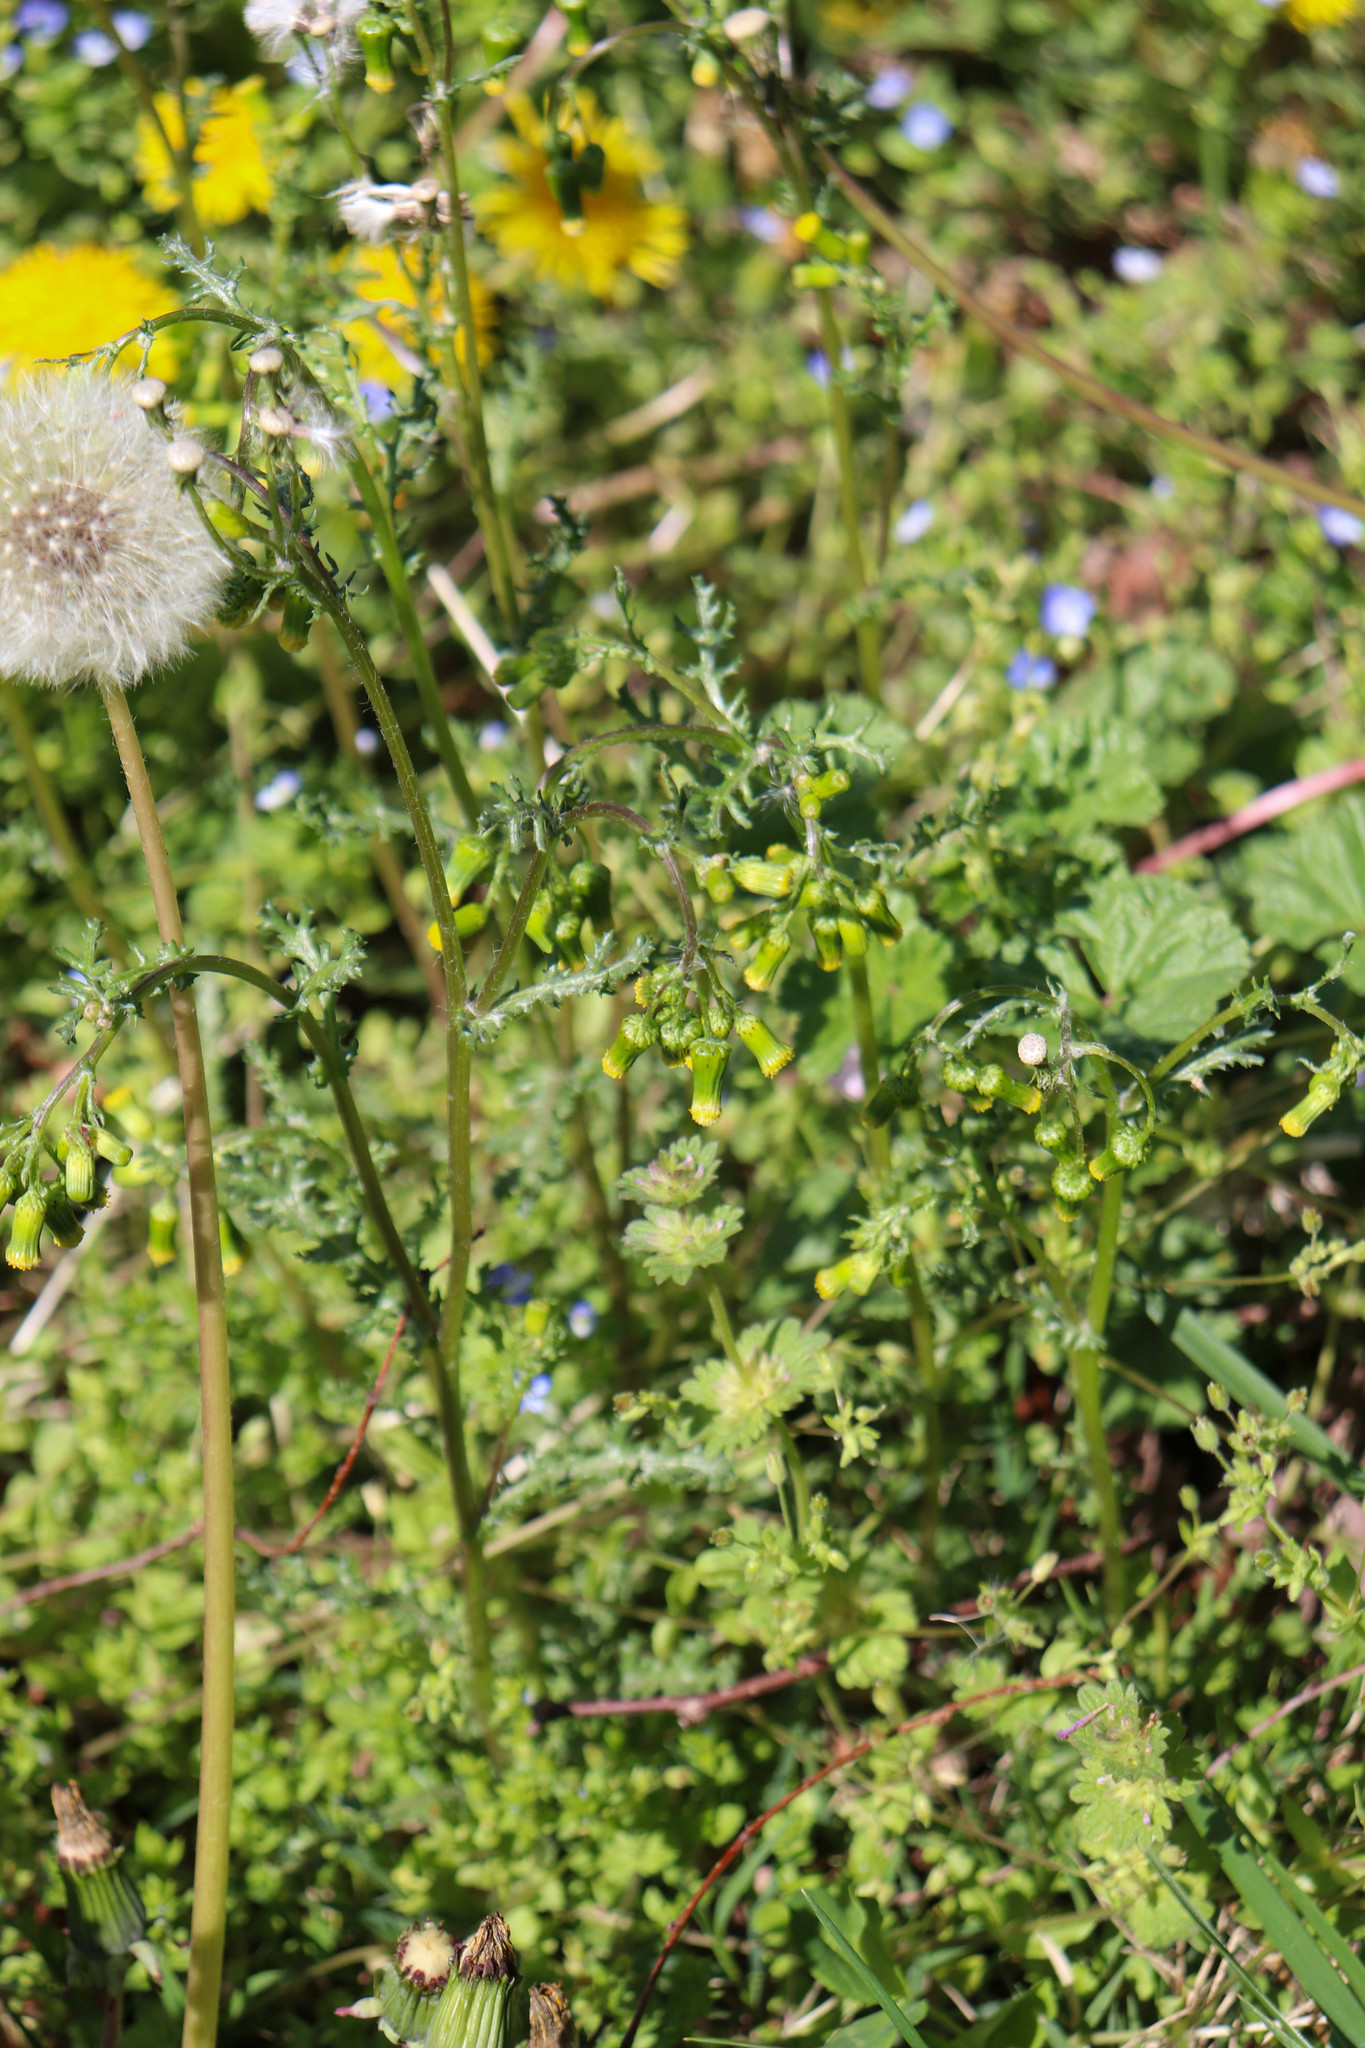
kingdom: Plantae
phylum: Tracheophyta
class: Magnoliopsida
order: Asterales
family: Asteraceae
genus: Senecio
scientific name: Senecio vulgaris
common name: Old-man-in-the-spring
